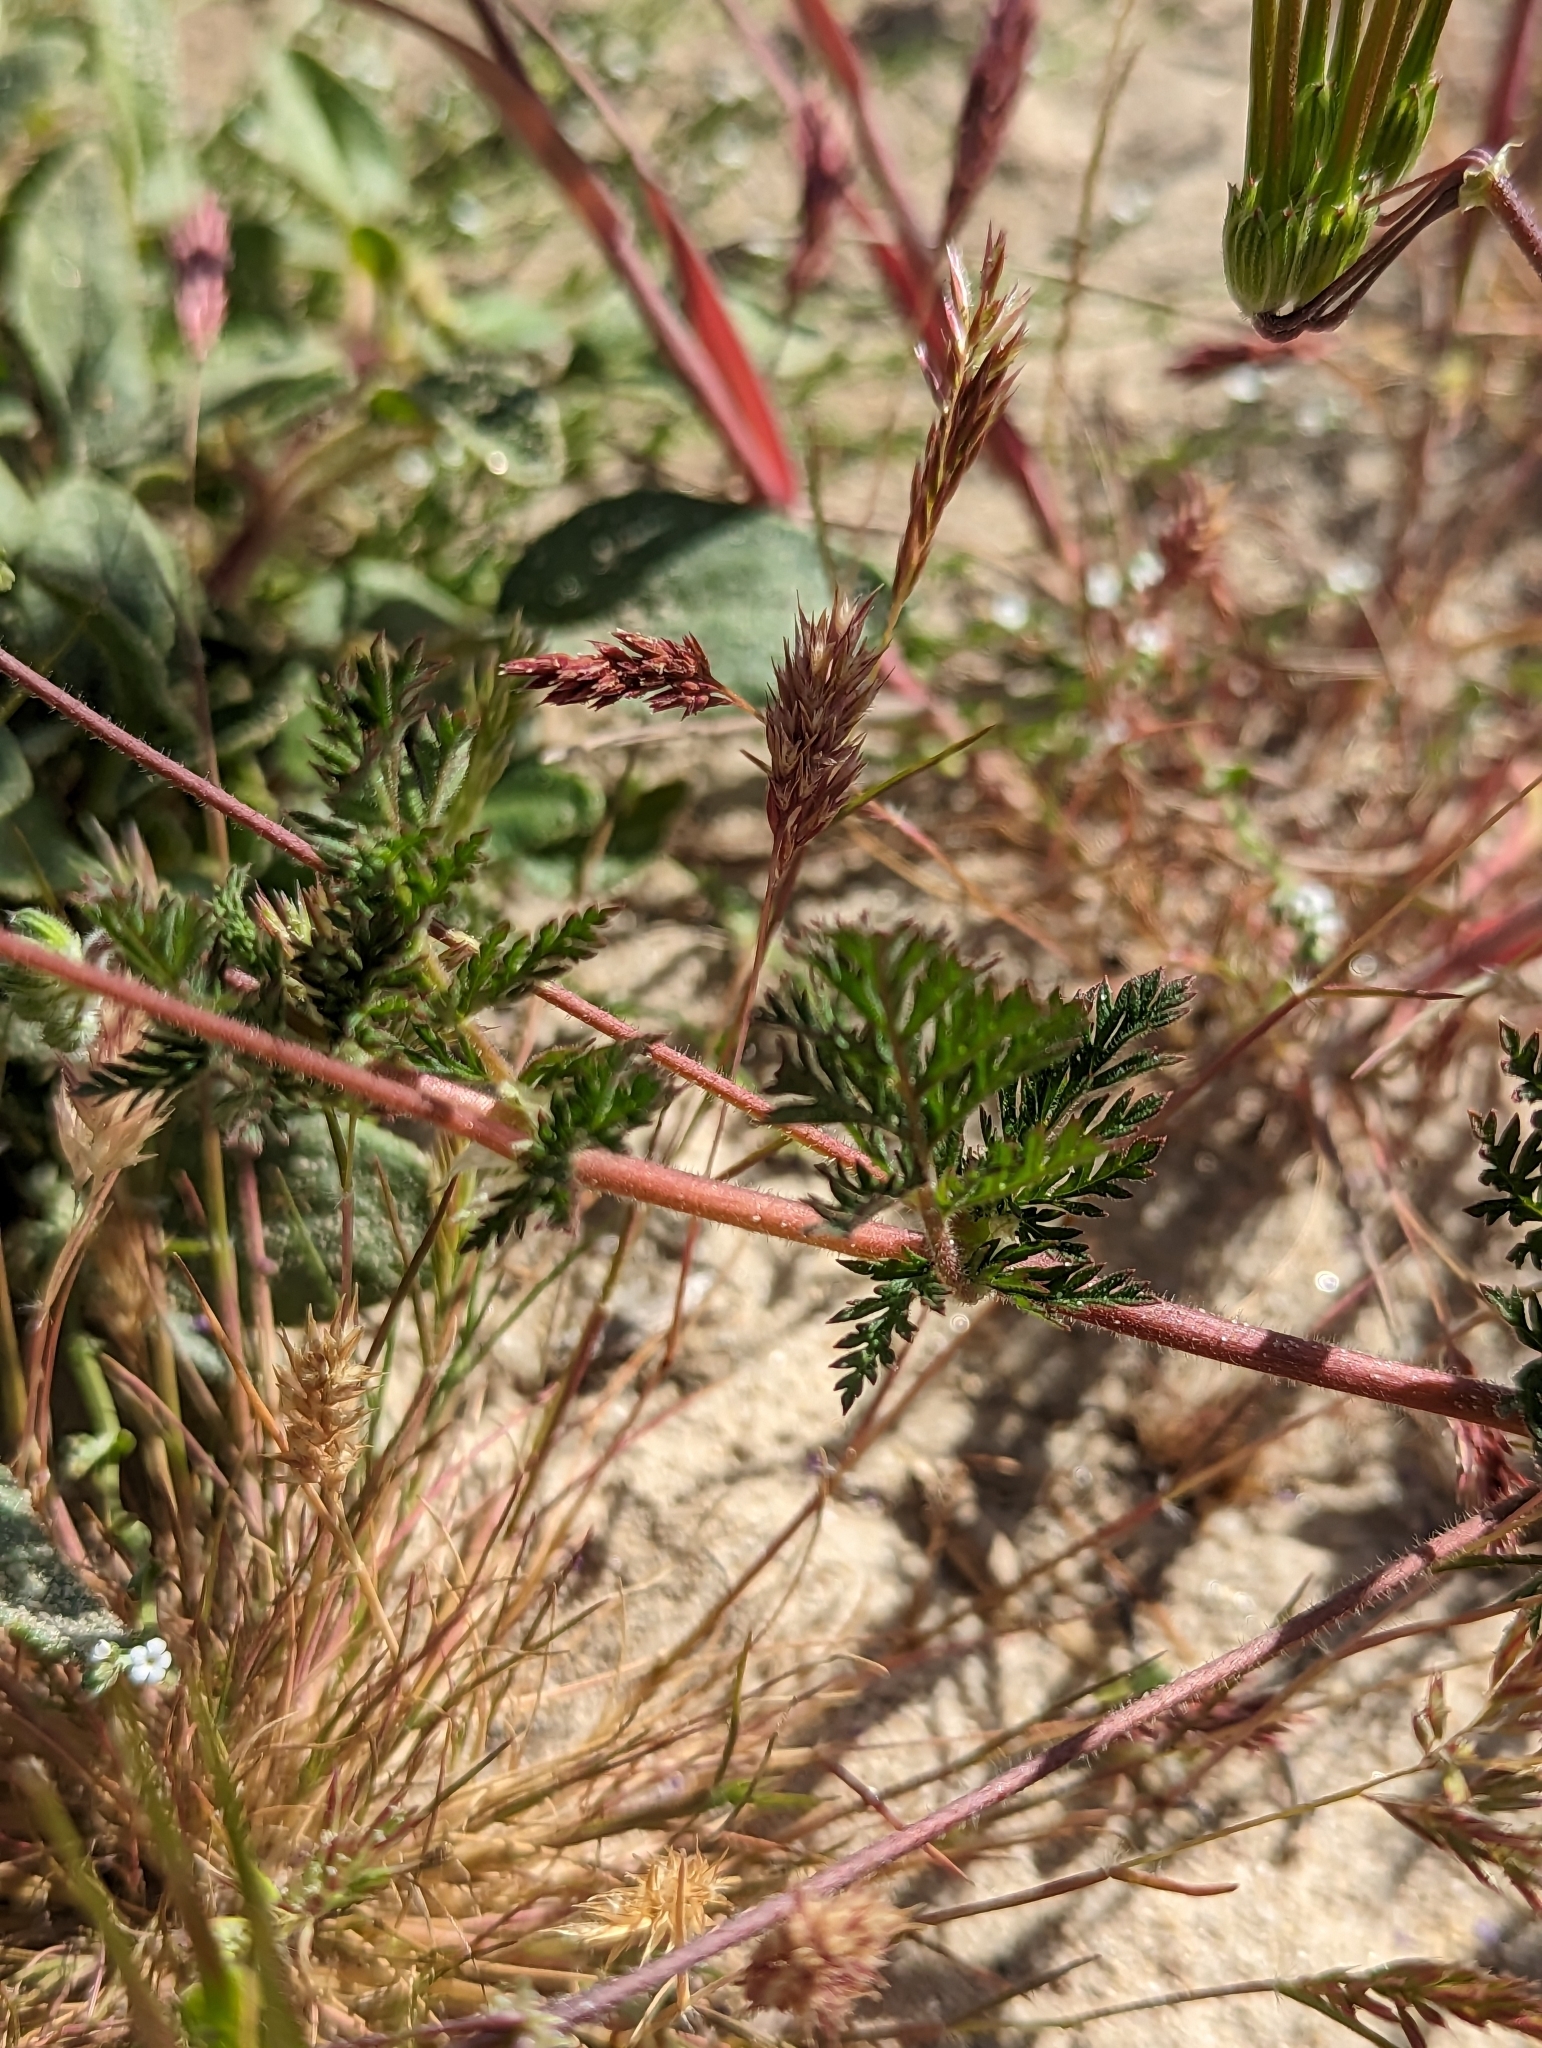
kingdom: Plantae
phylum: Tracheophyta
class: Magnoliopsida
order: Geraniales
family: Geraniaceae
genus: Erodium
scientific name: Erodium cicutarium
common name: Common stork's-bill
